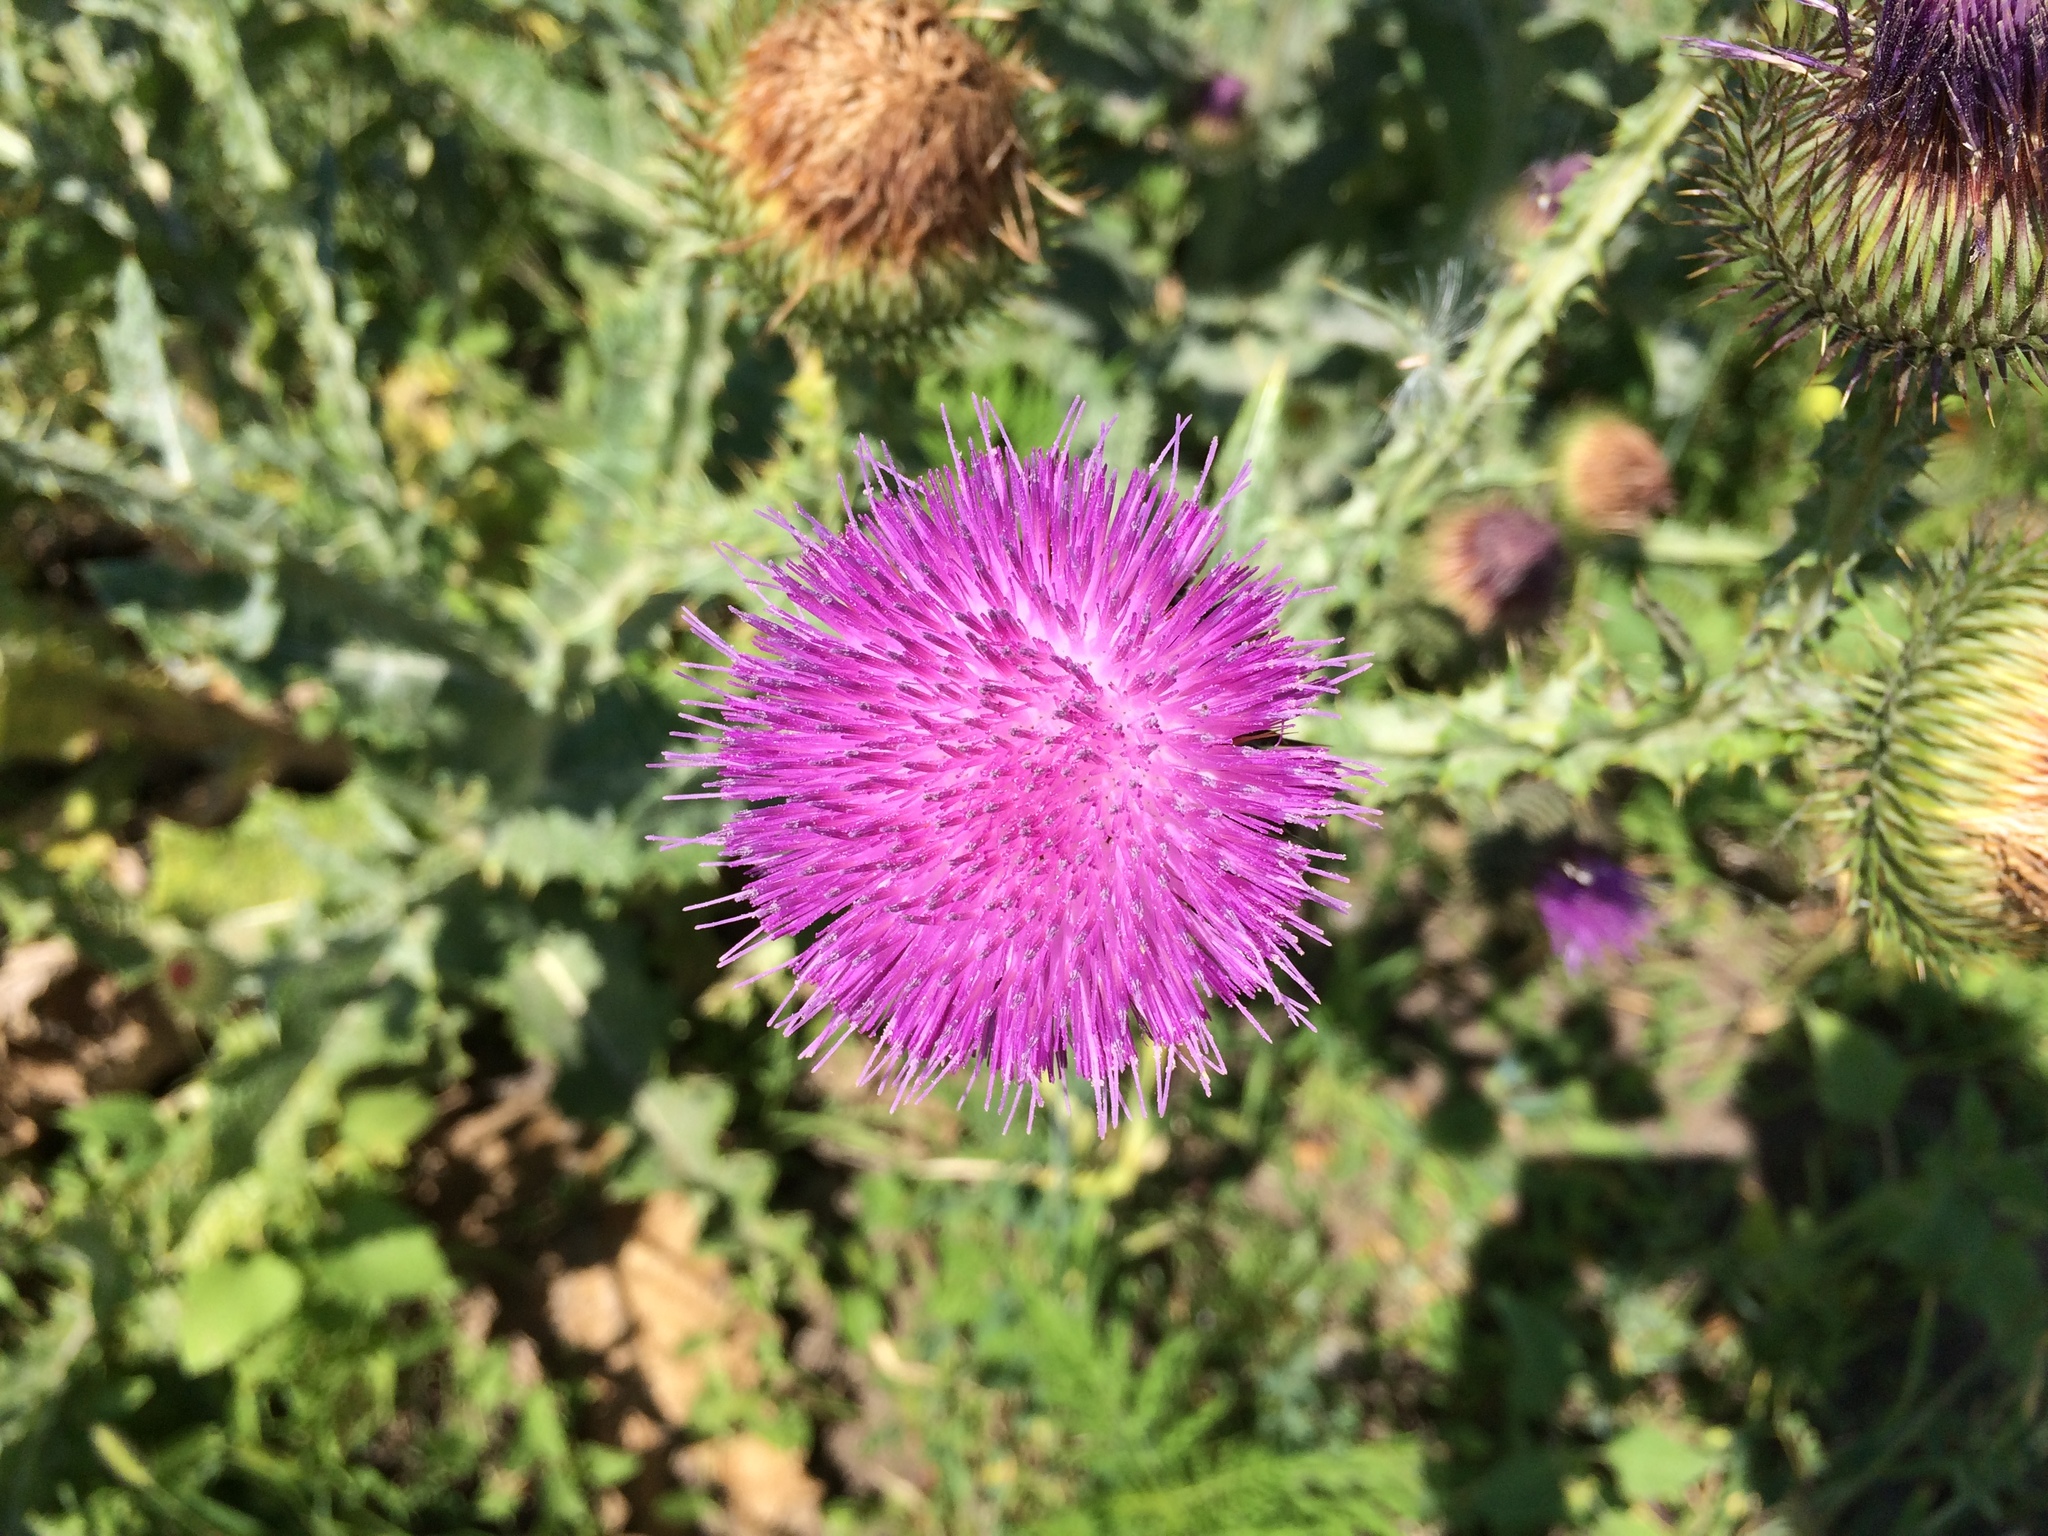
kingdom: Plantae
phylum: Tracheophyta
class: Magnoliopsida
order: Asterales
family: Asteraceae
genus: Onopordum
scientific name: Onopordum acanthium
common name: Scotch thistle
